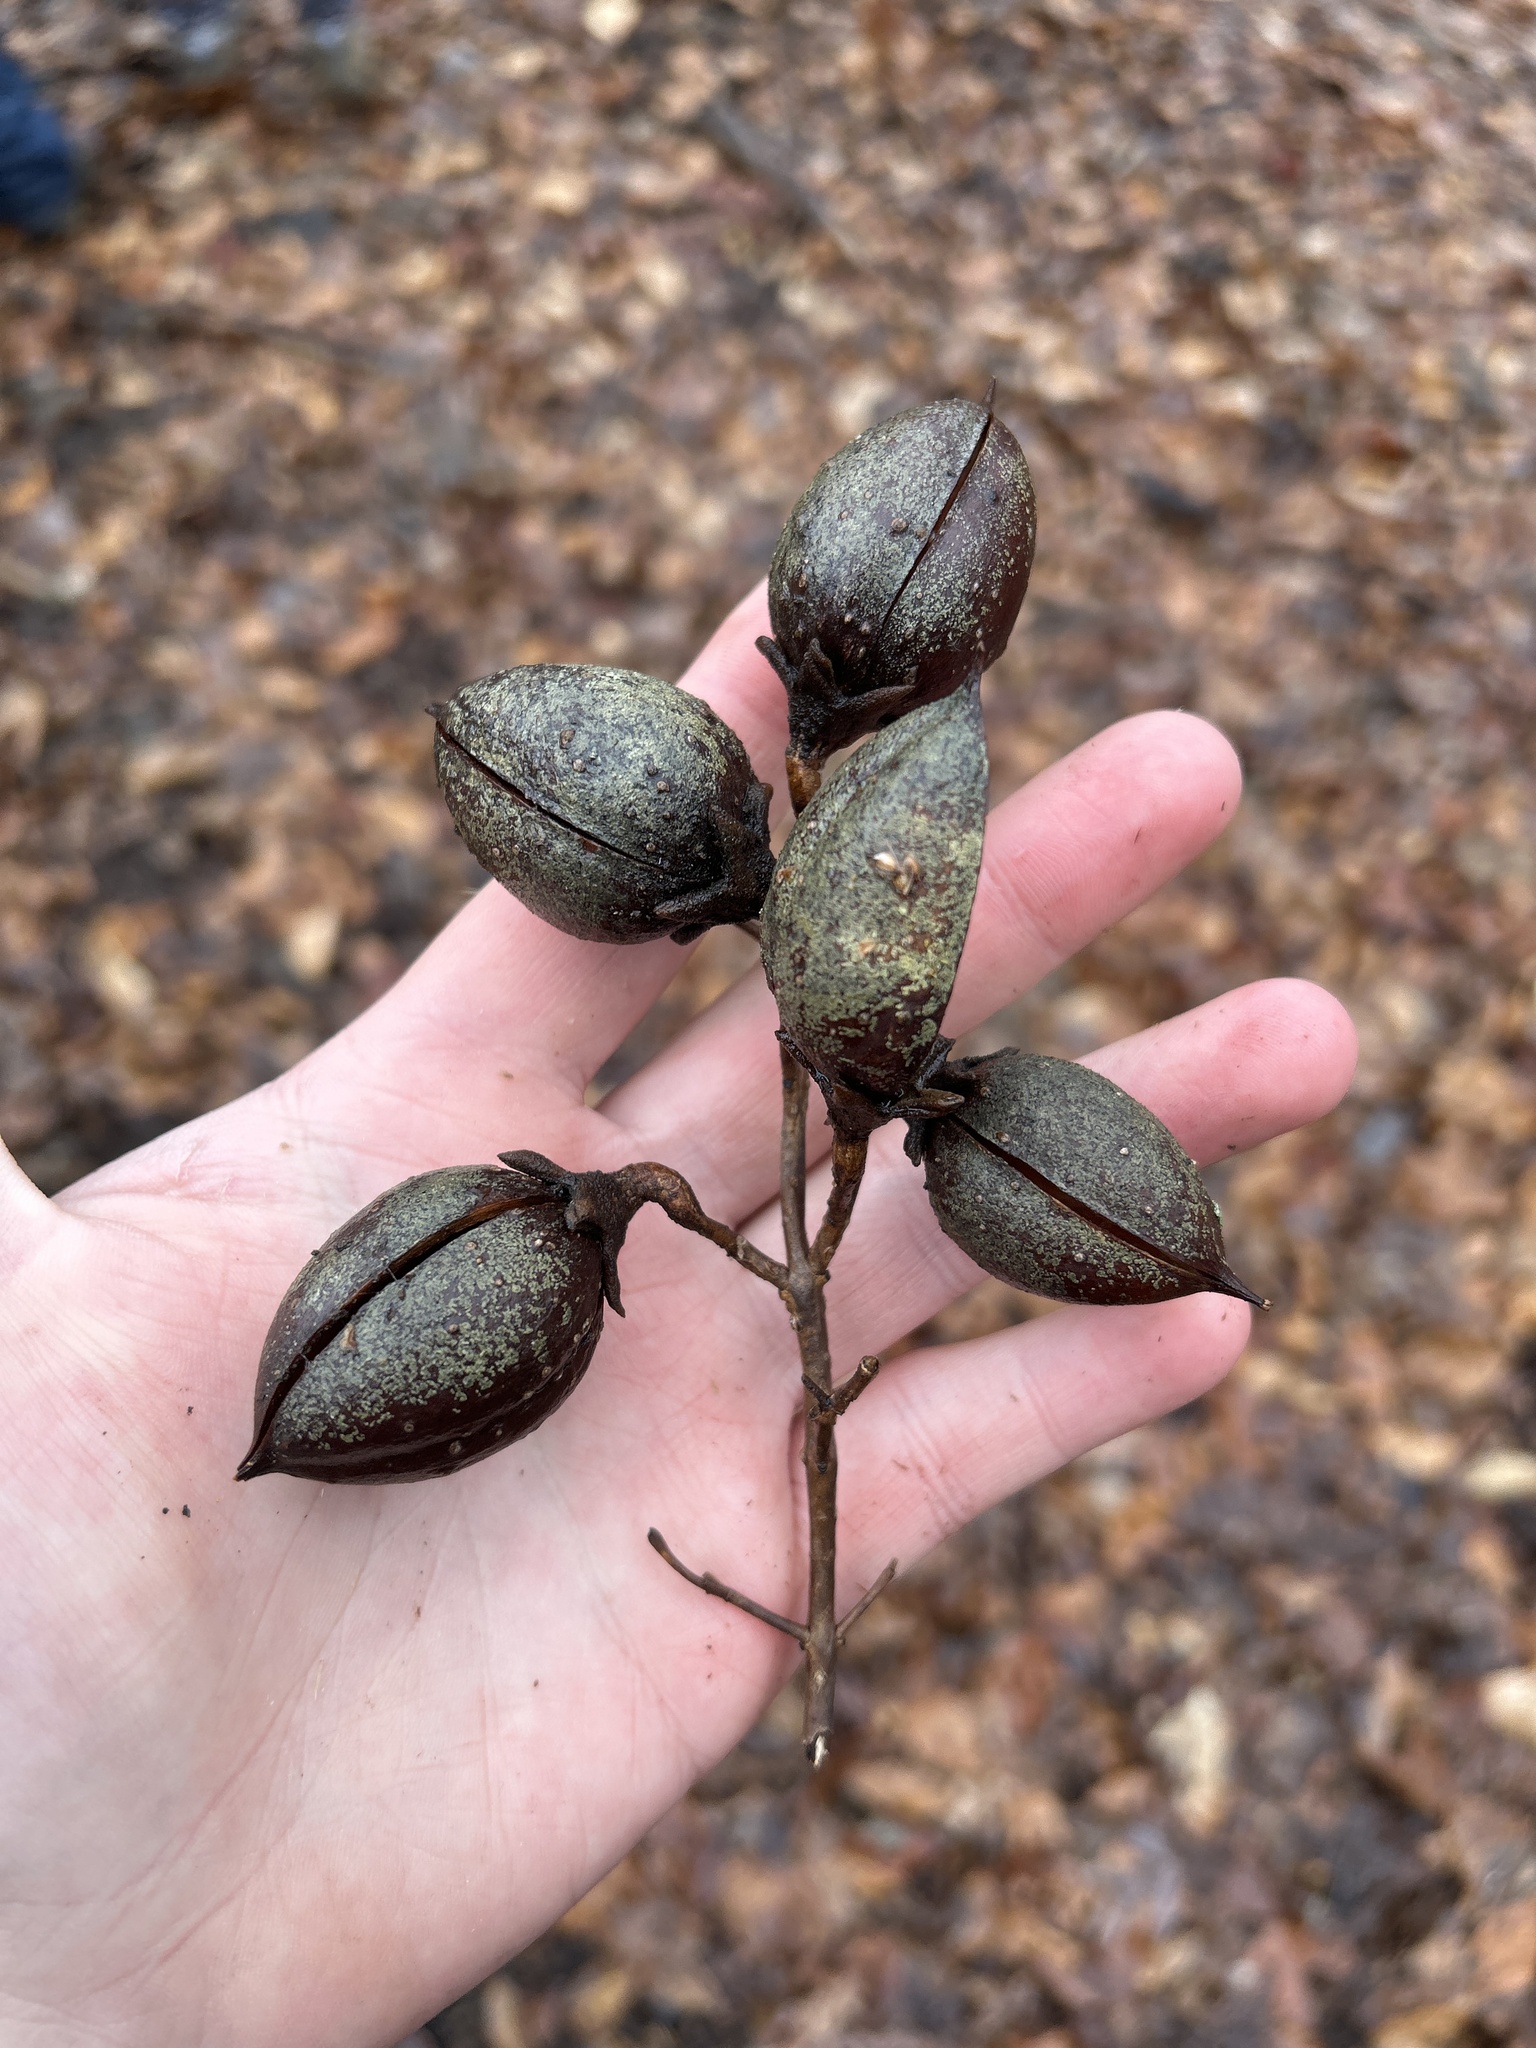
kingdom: Plantae
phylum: Tracheophyta
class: Magnoliopsida
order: Lamiales
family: Paulowniaceae
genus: Paulownia
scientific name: Paulownia tomentosa
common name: Foxglove-tree
